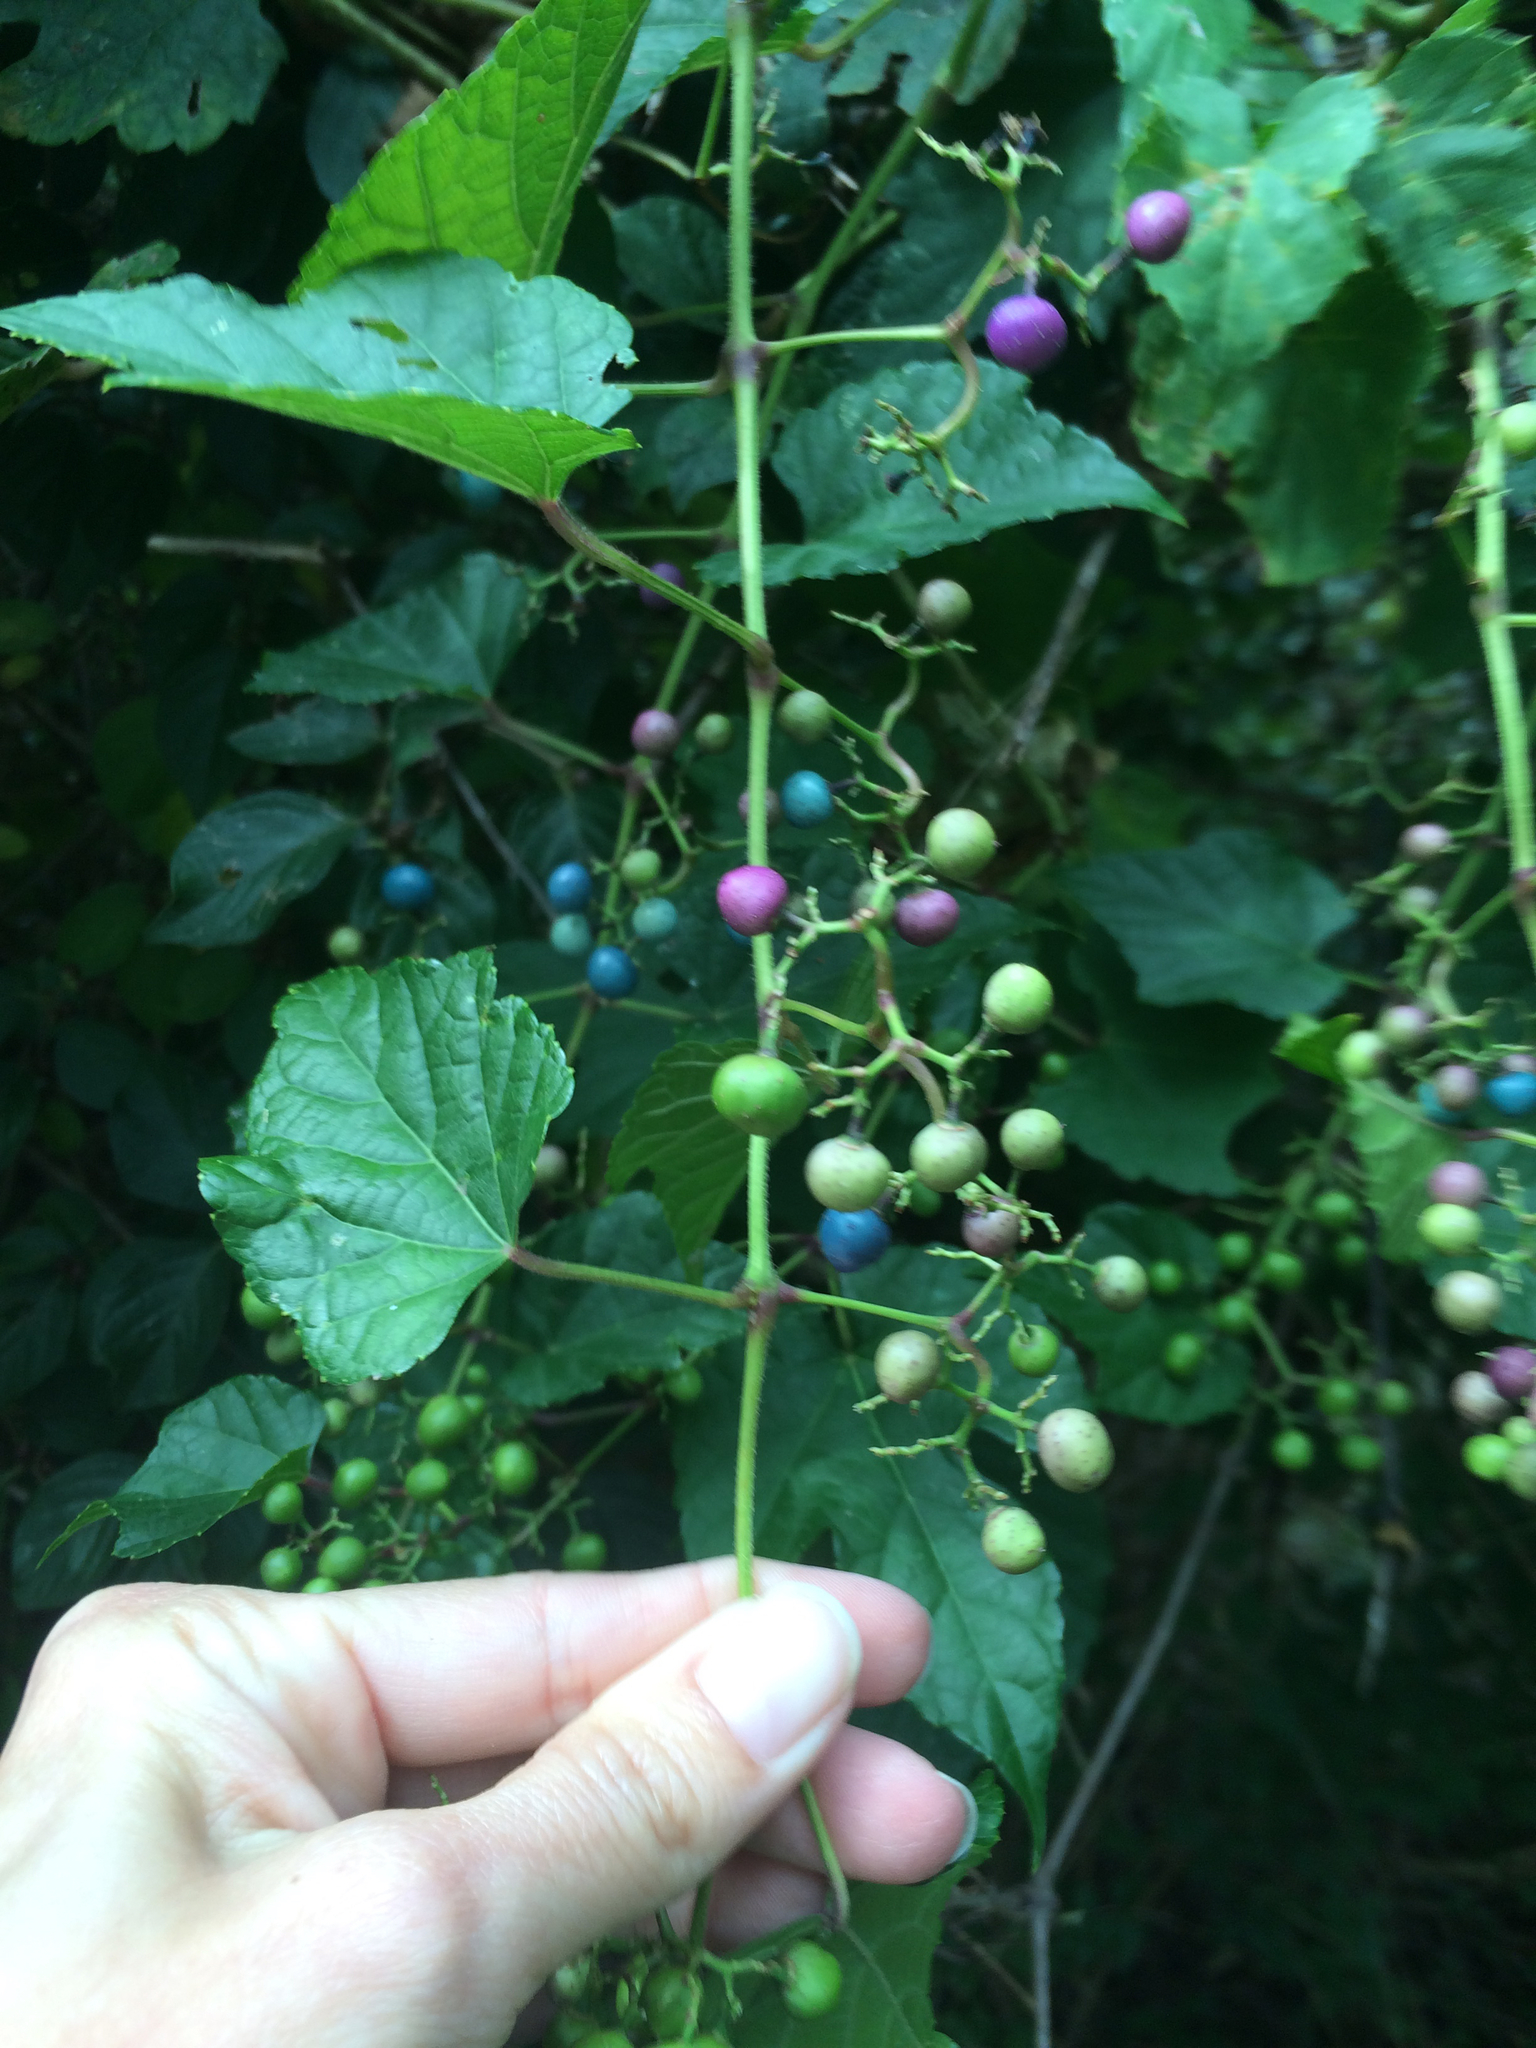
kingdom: Plantae
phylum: Tracheophyta
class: Magnoliopsida
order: Vitales
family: Vitaceae
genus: Ampelopsis
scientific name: Ampelopsis glandulosa
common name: Amur peppervine
